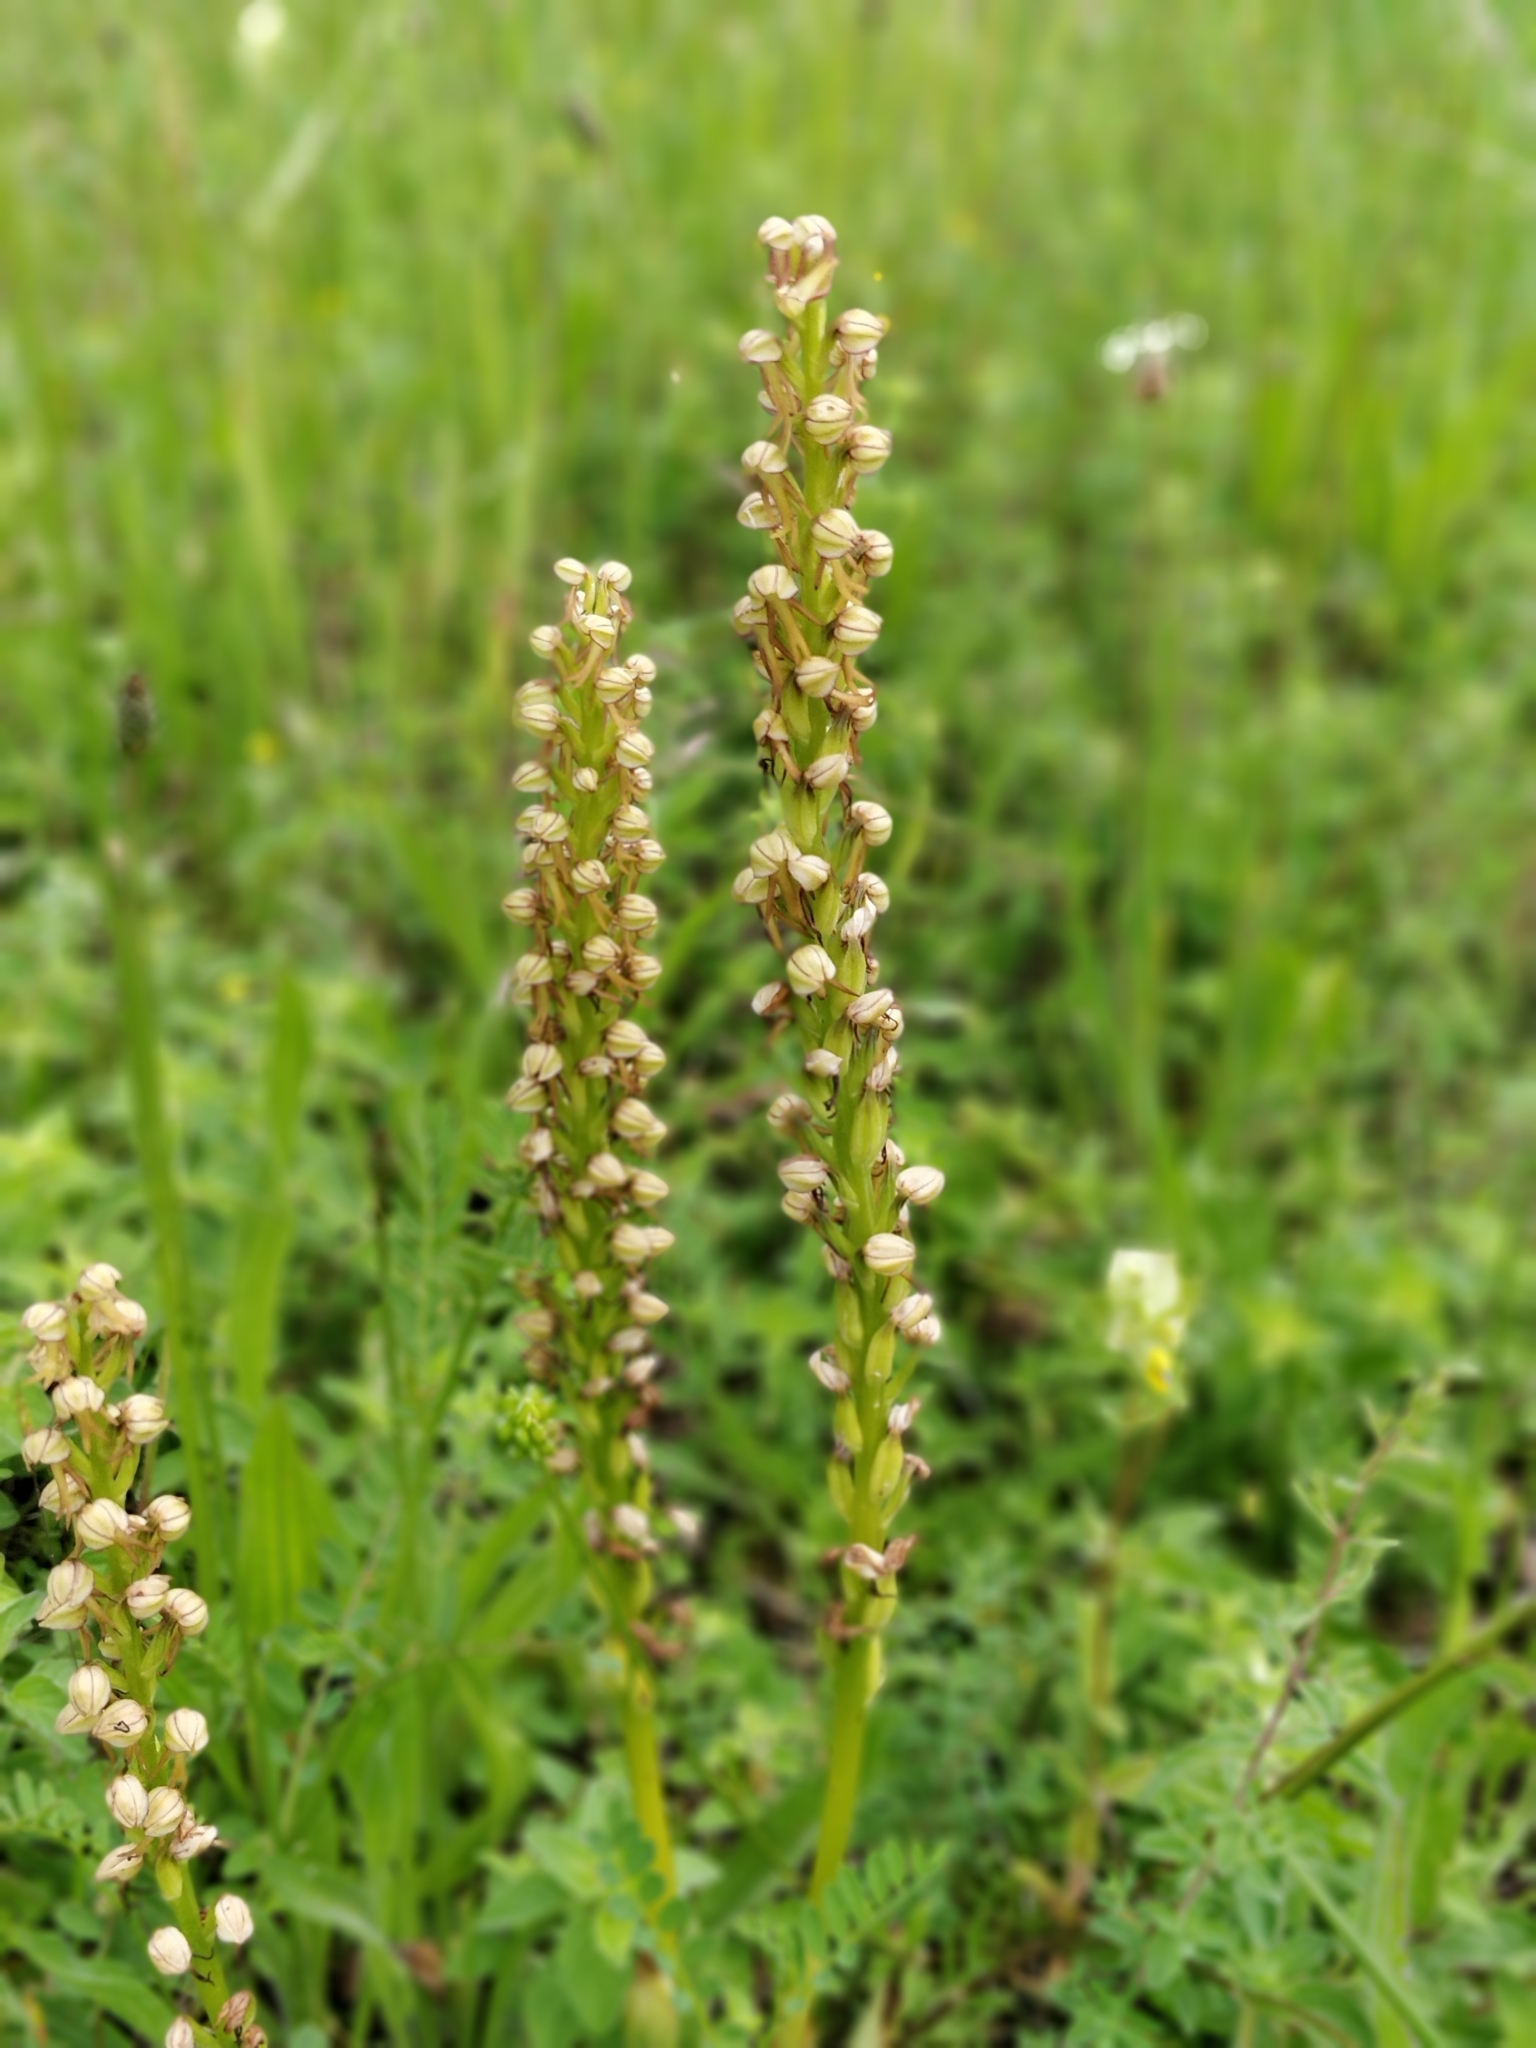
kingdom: Plantae
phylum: Tracheophyta
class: Liliopsida
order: Asparagales
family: Orchidaceae
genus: Orchis
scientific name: Orchis anthropophora
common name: Man orchid
